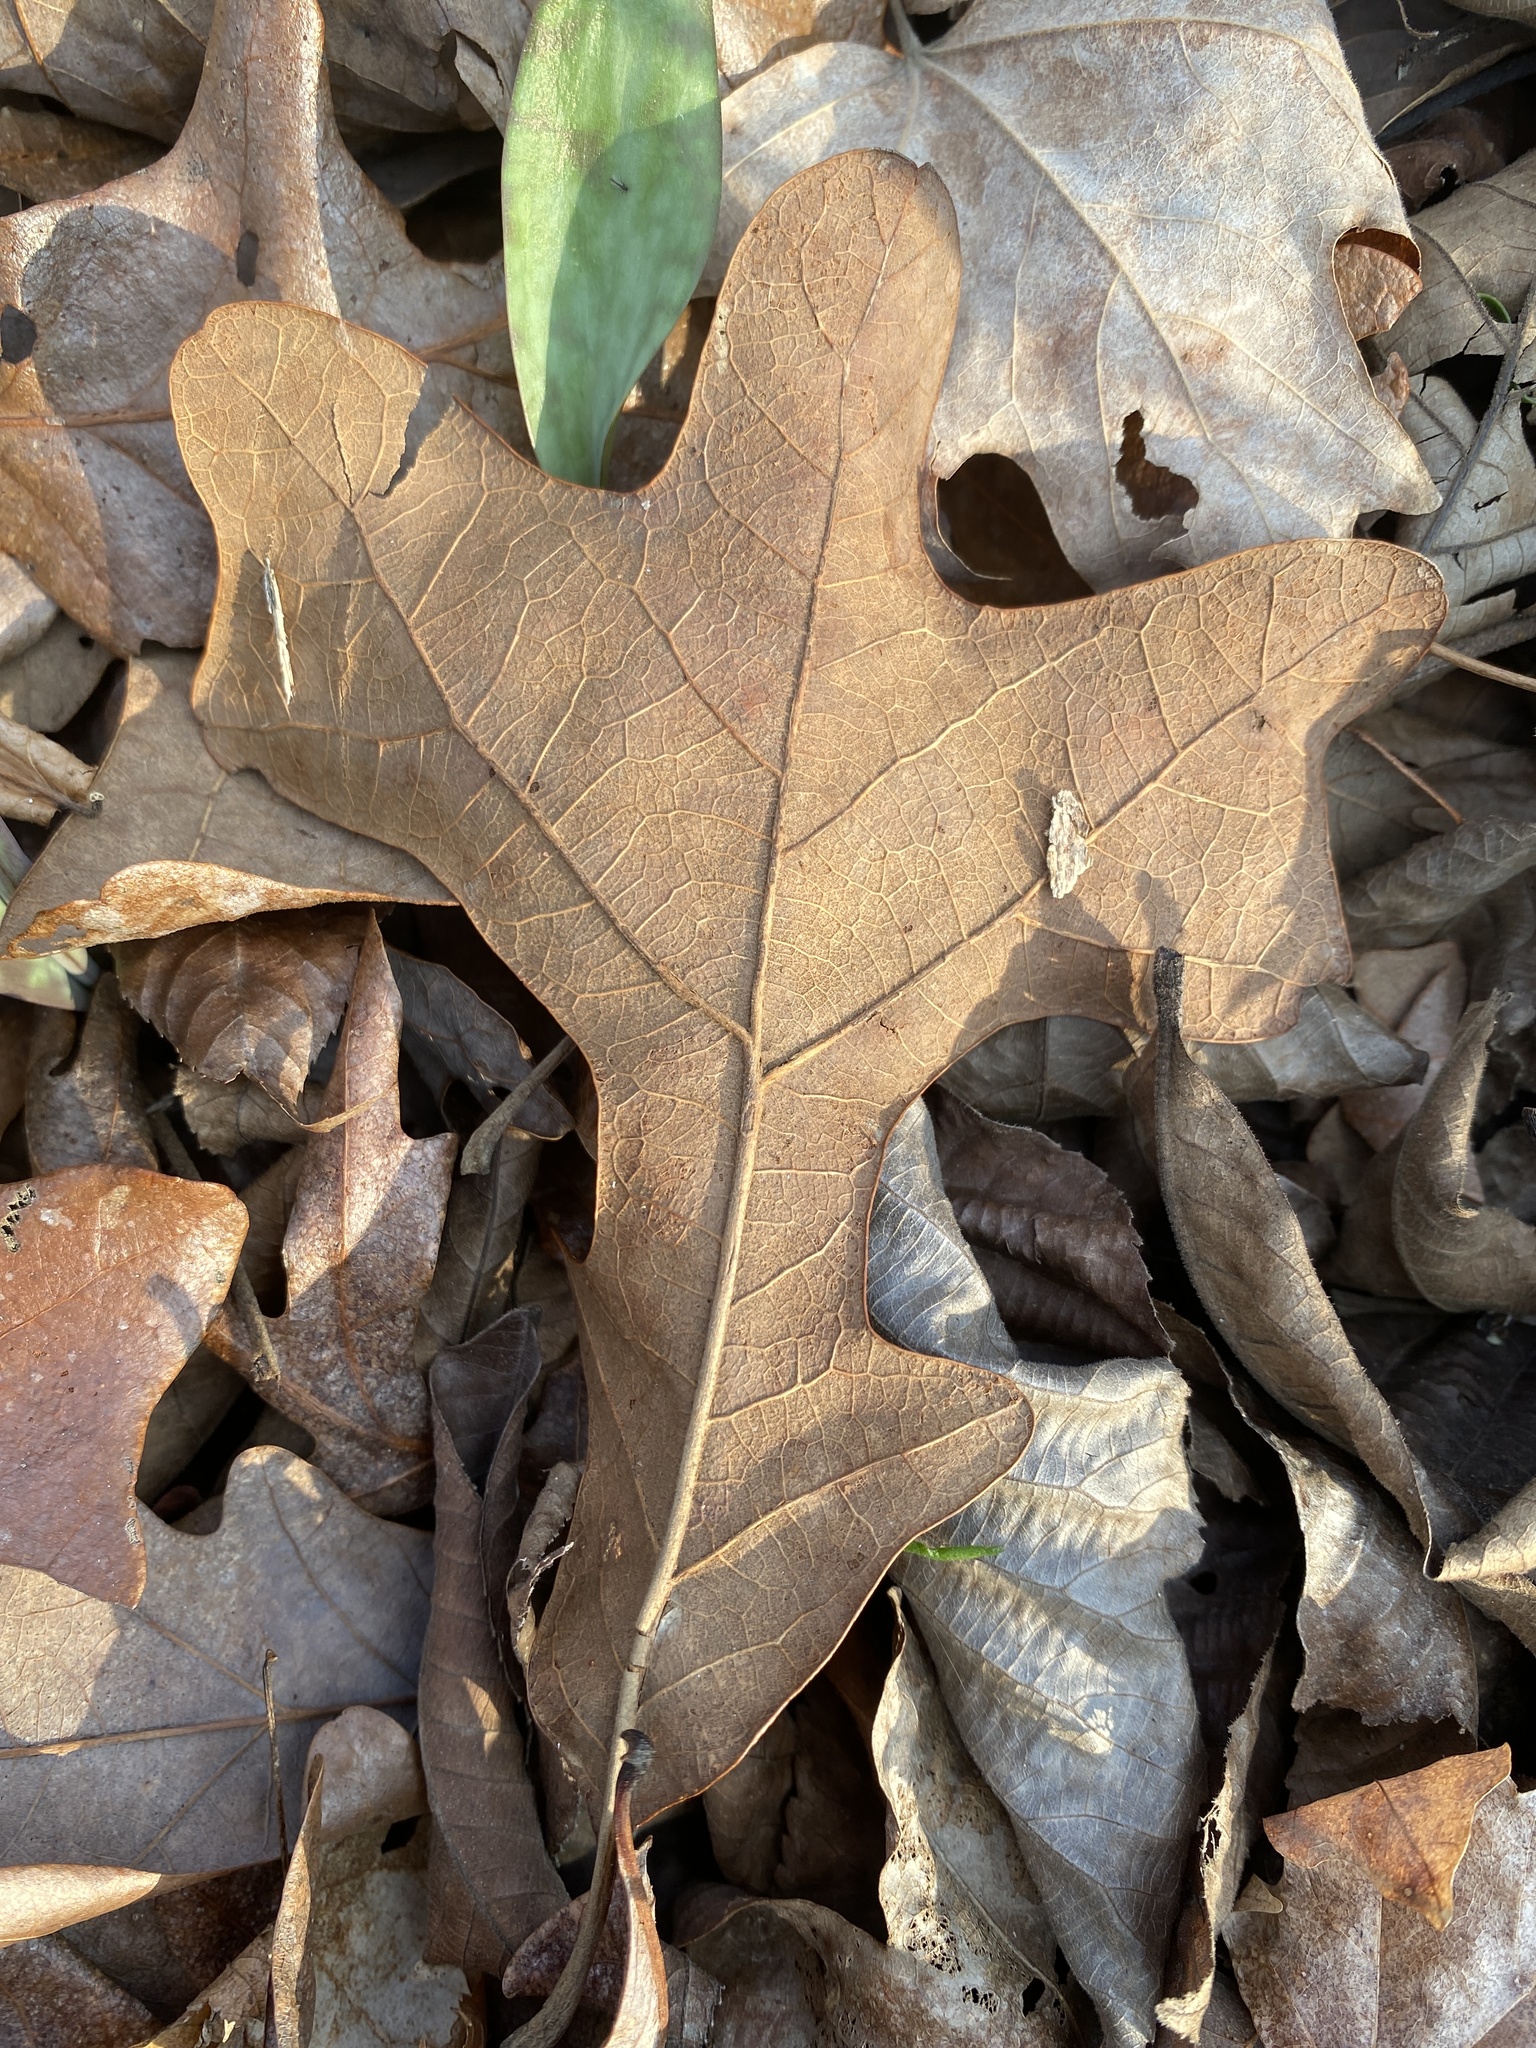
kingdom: Plantae
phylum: Tracheophyta
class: Magnoliopsida
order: Fagales
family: Fagaceae
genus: Quercus
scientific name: Quercus stellata
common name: Post oak
